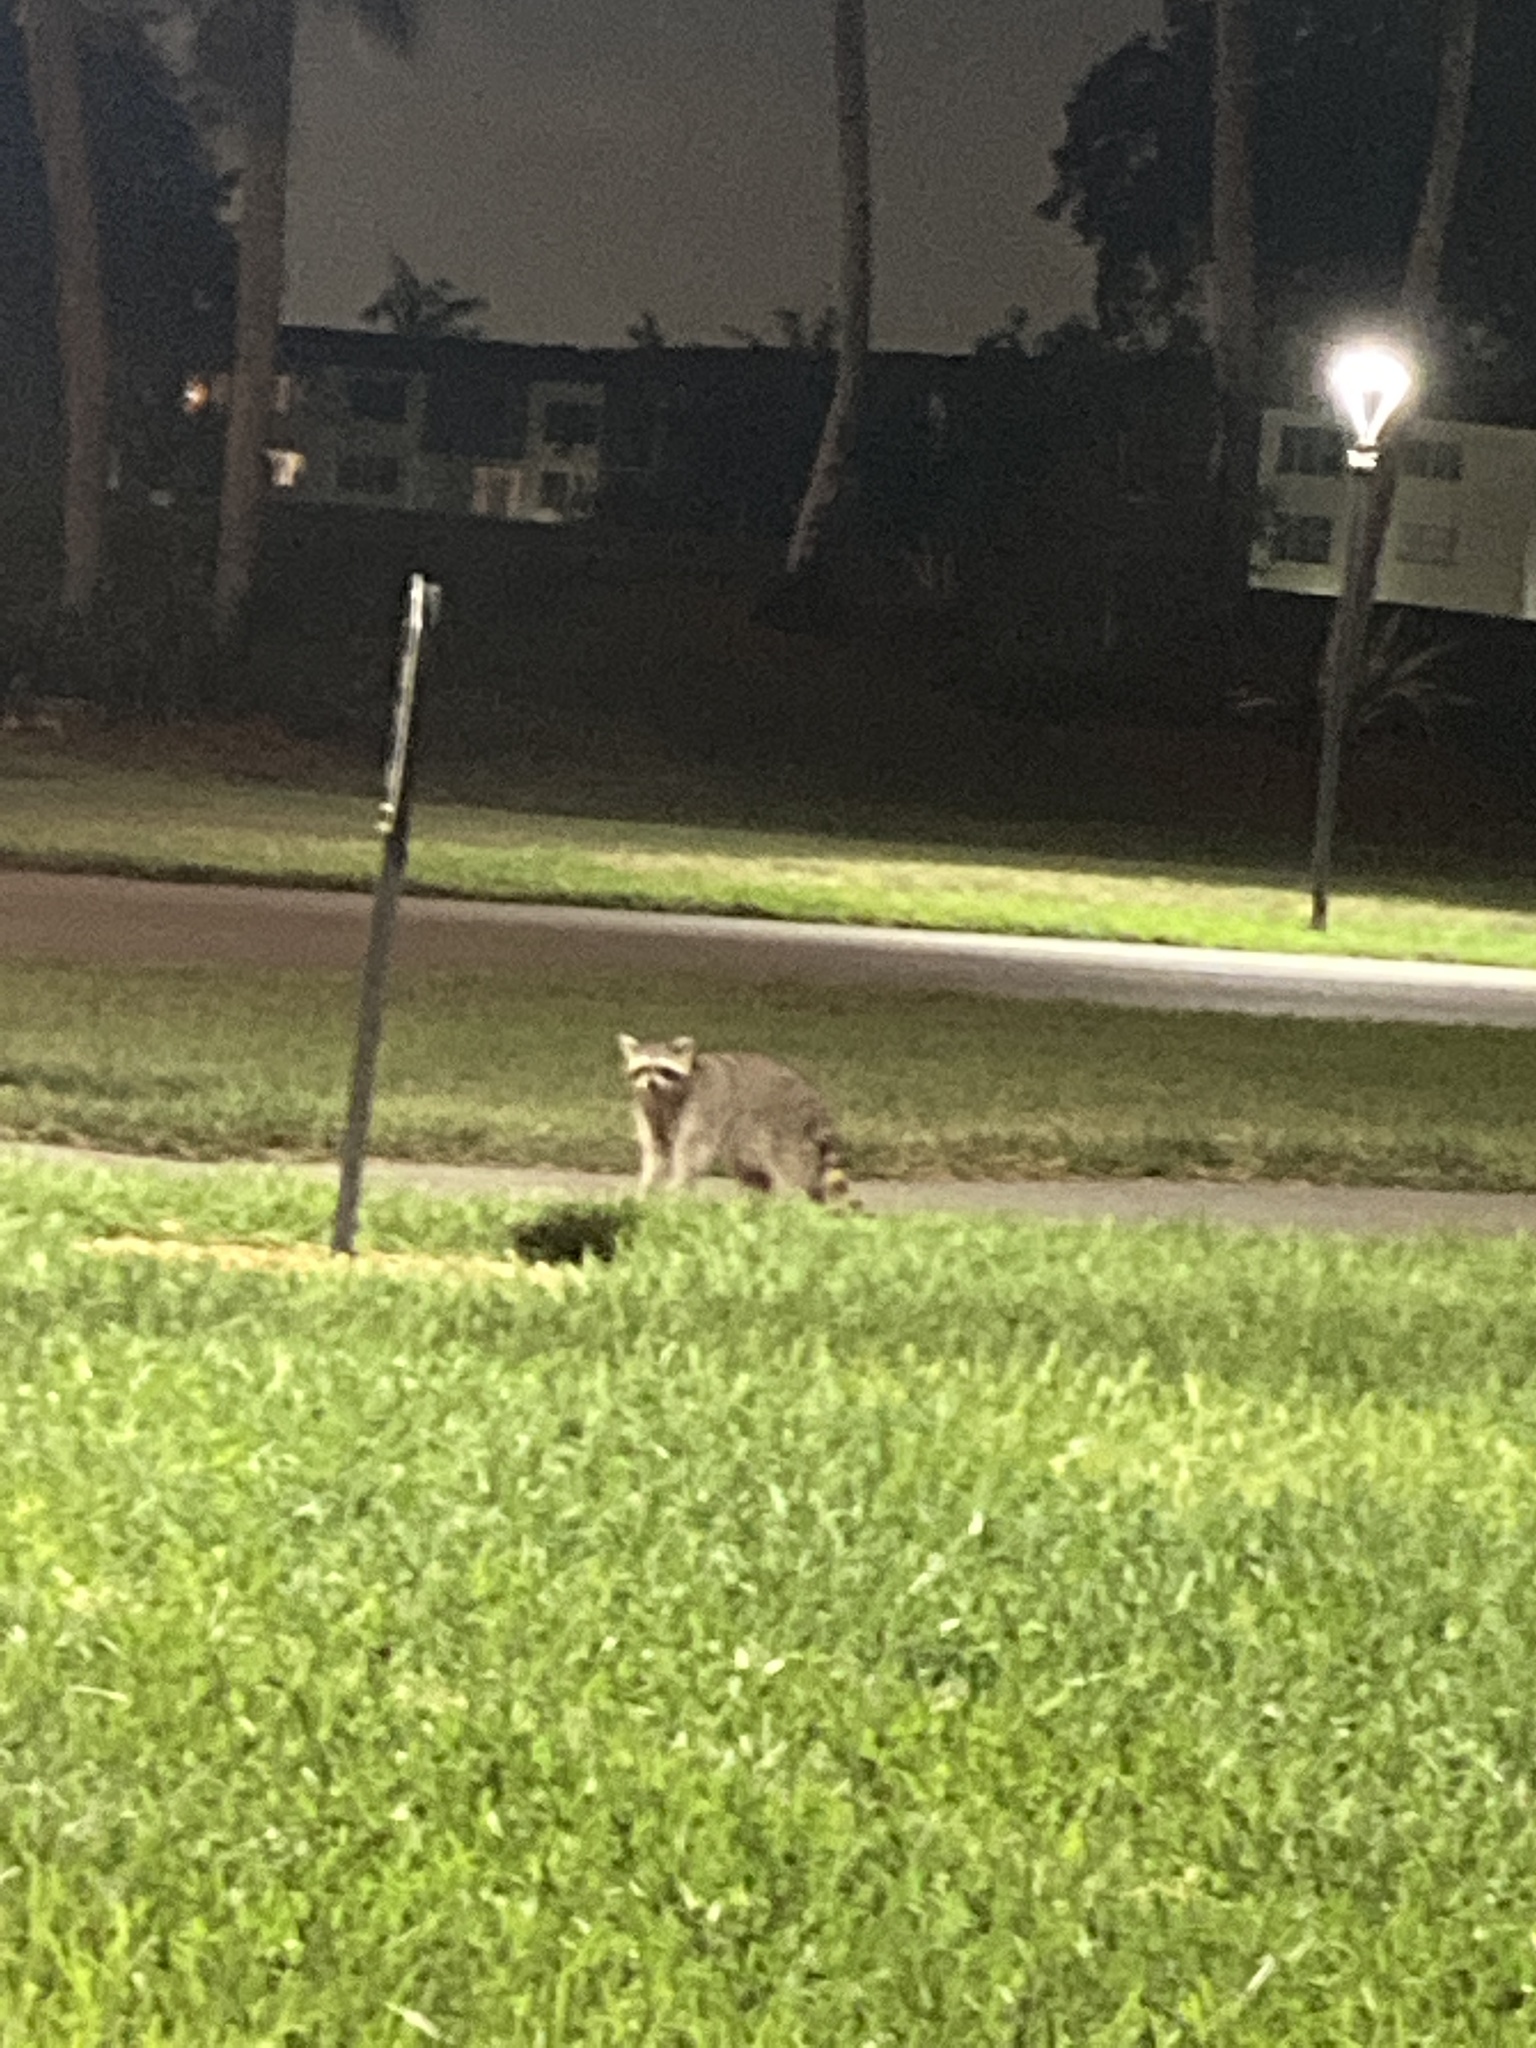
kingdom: Animalia
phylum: Chordata
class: Mammalia
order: Carnivora
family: Procyonidae
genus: Procyon
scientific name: Procyon lotor
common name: Raccoon
